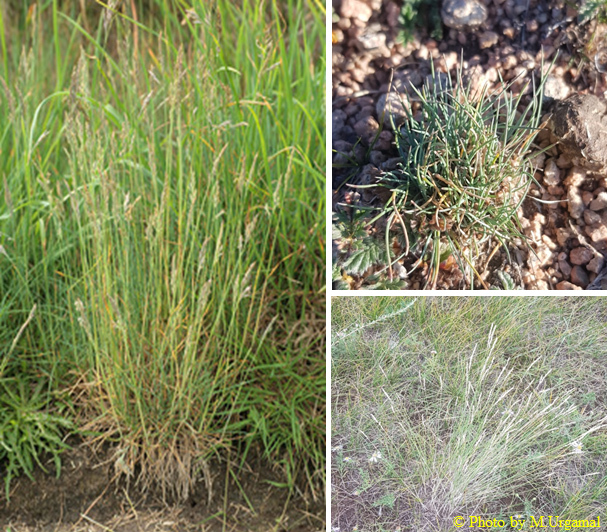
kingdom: Plantae
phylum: Tracheophyta
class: Liliopsida
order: Poales
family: Poaceae
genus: Festuca
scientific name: Festuca lenensis
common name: Lena river fescue
